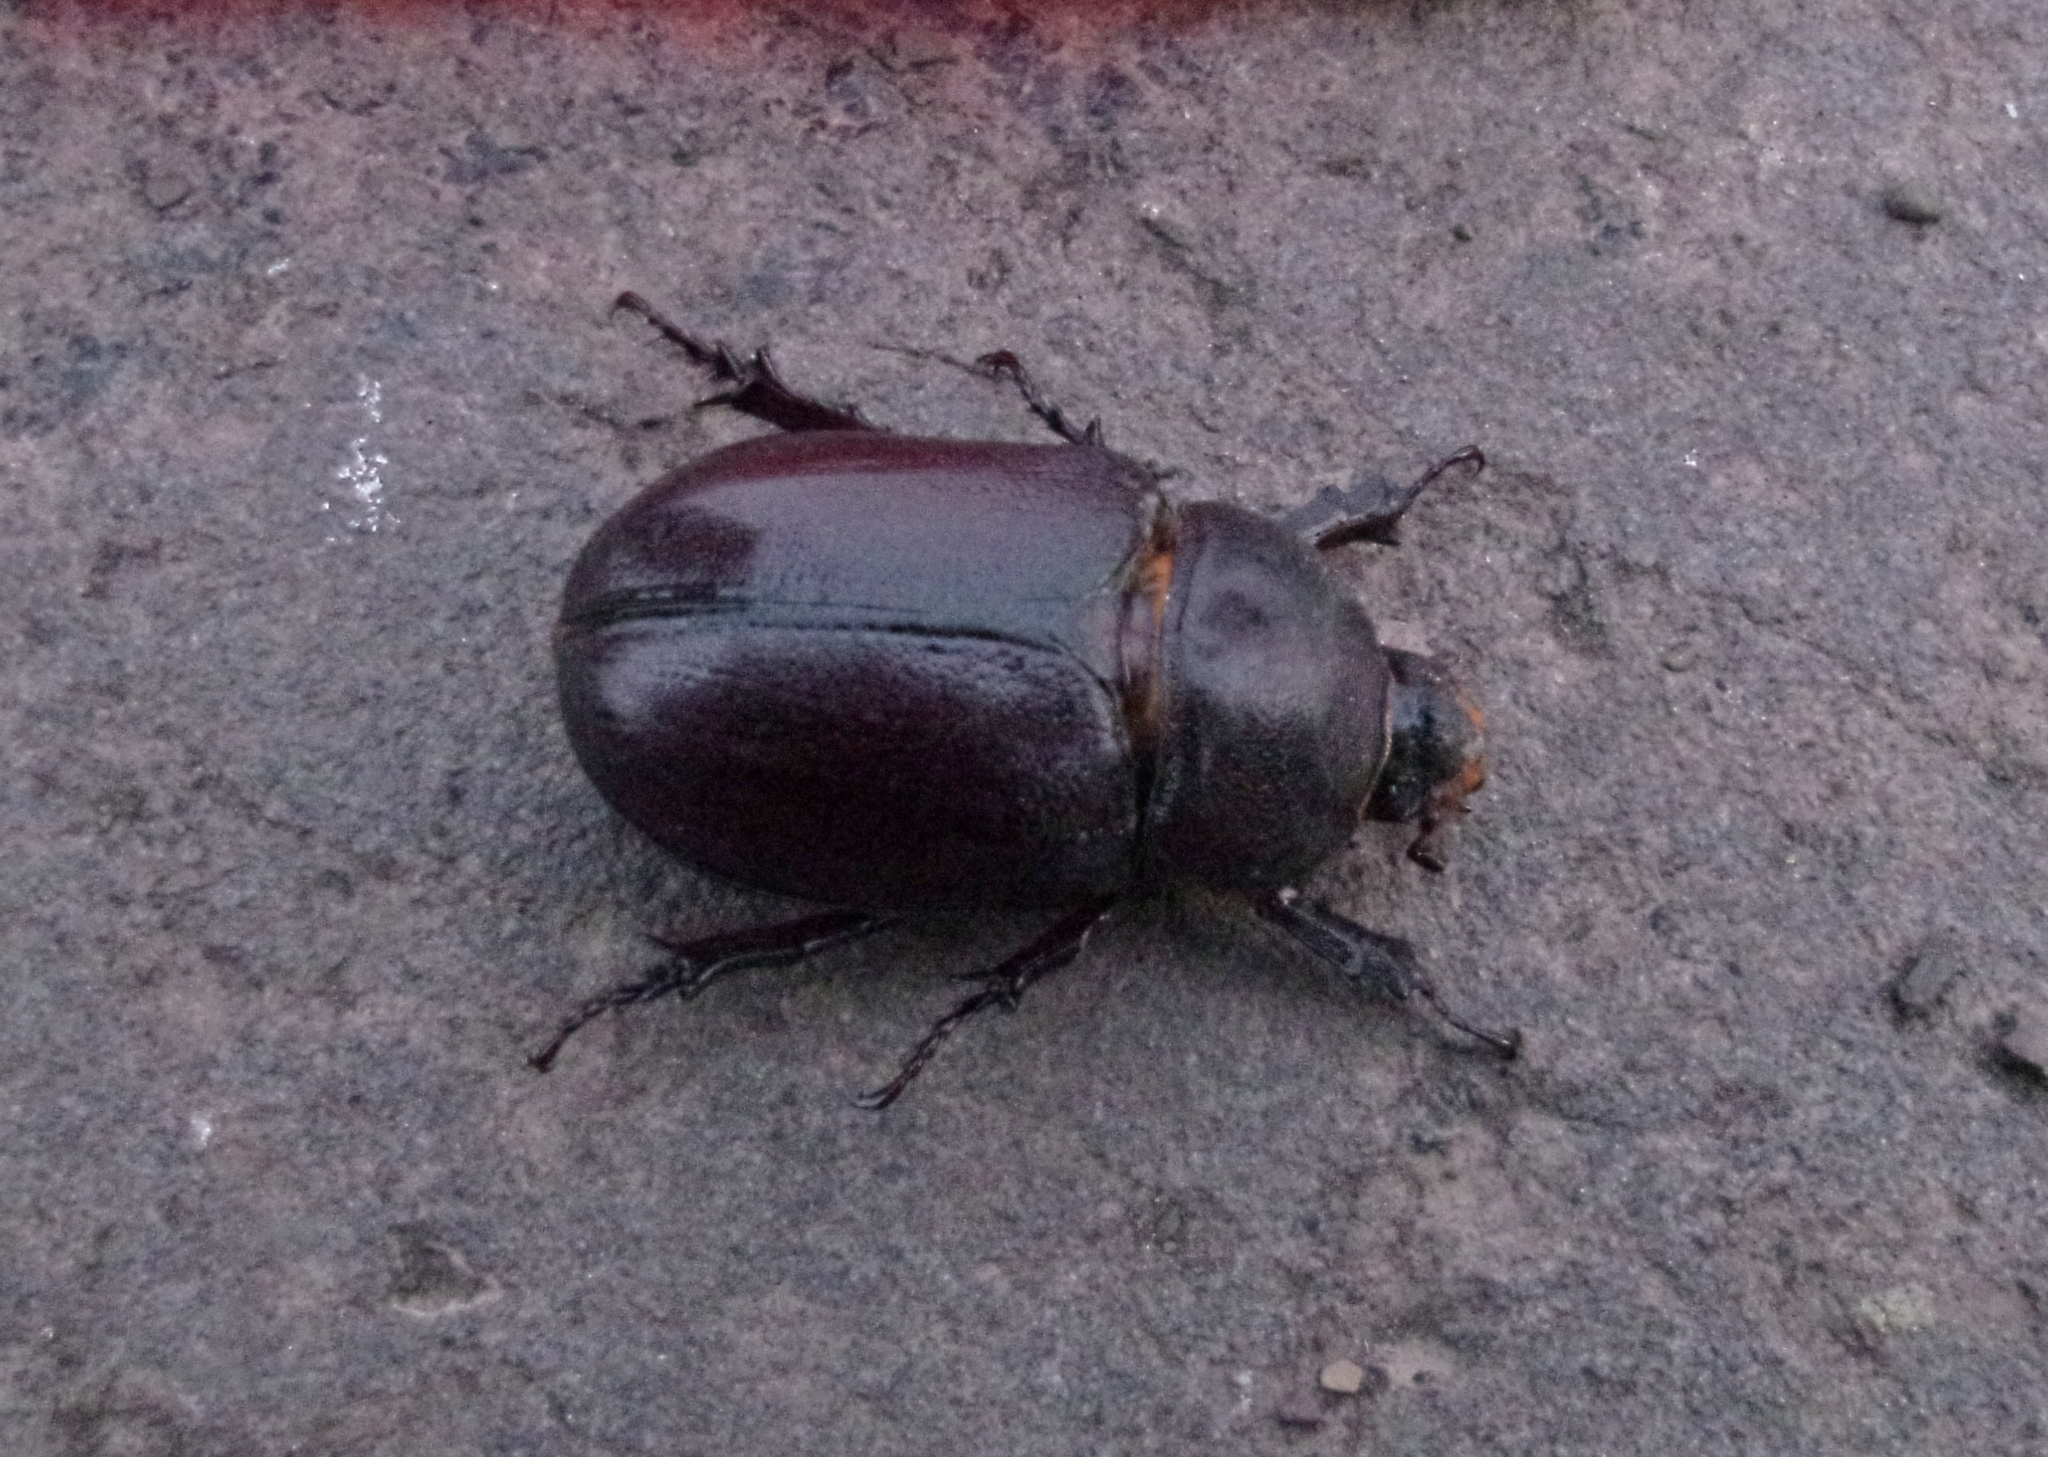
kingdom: Animalia
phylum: Arthropoda
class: Insecta
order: Coleoptera
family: Scarabaeidae
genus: Oryctes
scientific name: Oryctes nasicornis
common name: European rhinoceros beetle
